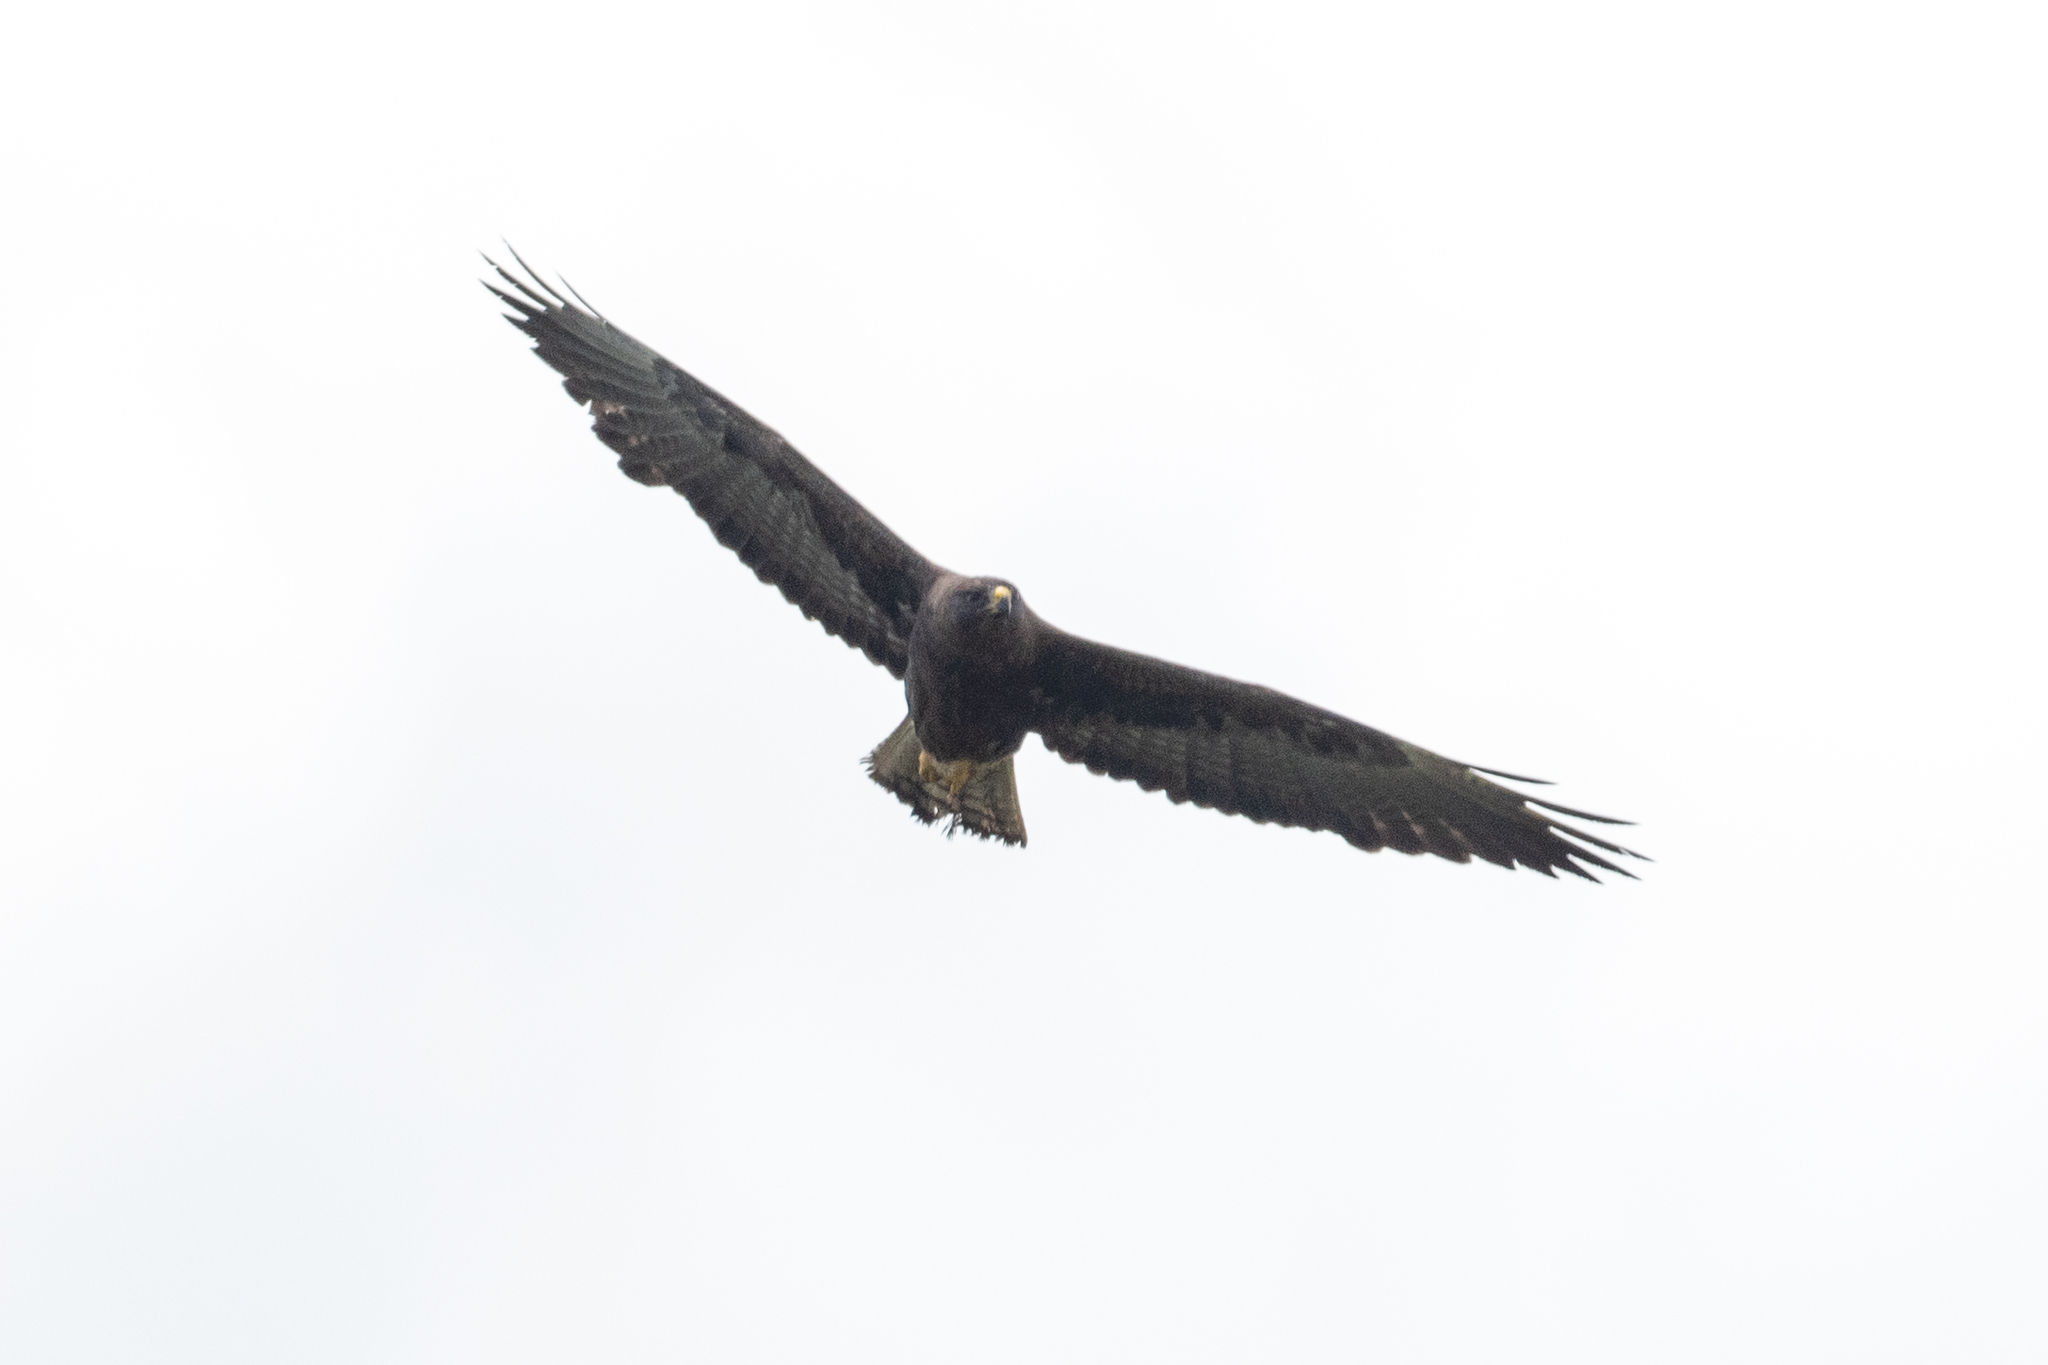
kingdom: Animalia
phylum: Chordata
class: Aves
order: Accipitriformes
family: Accipitridae
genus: Buteo
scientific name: Buteo swainsoni
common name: Swainson's hawk
